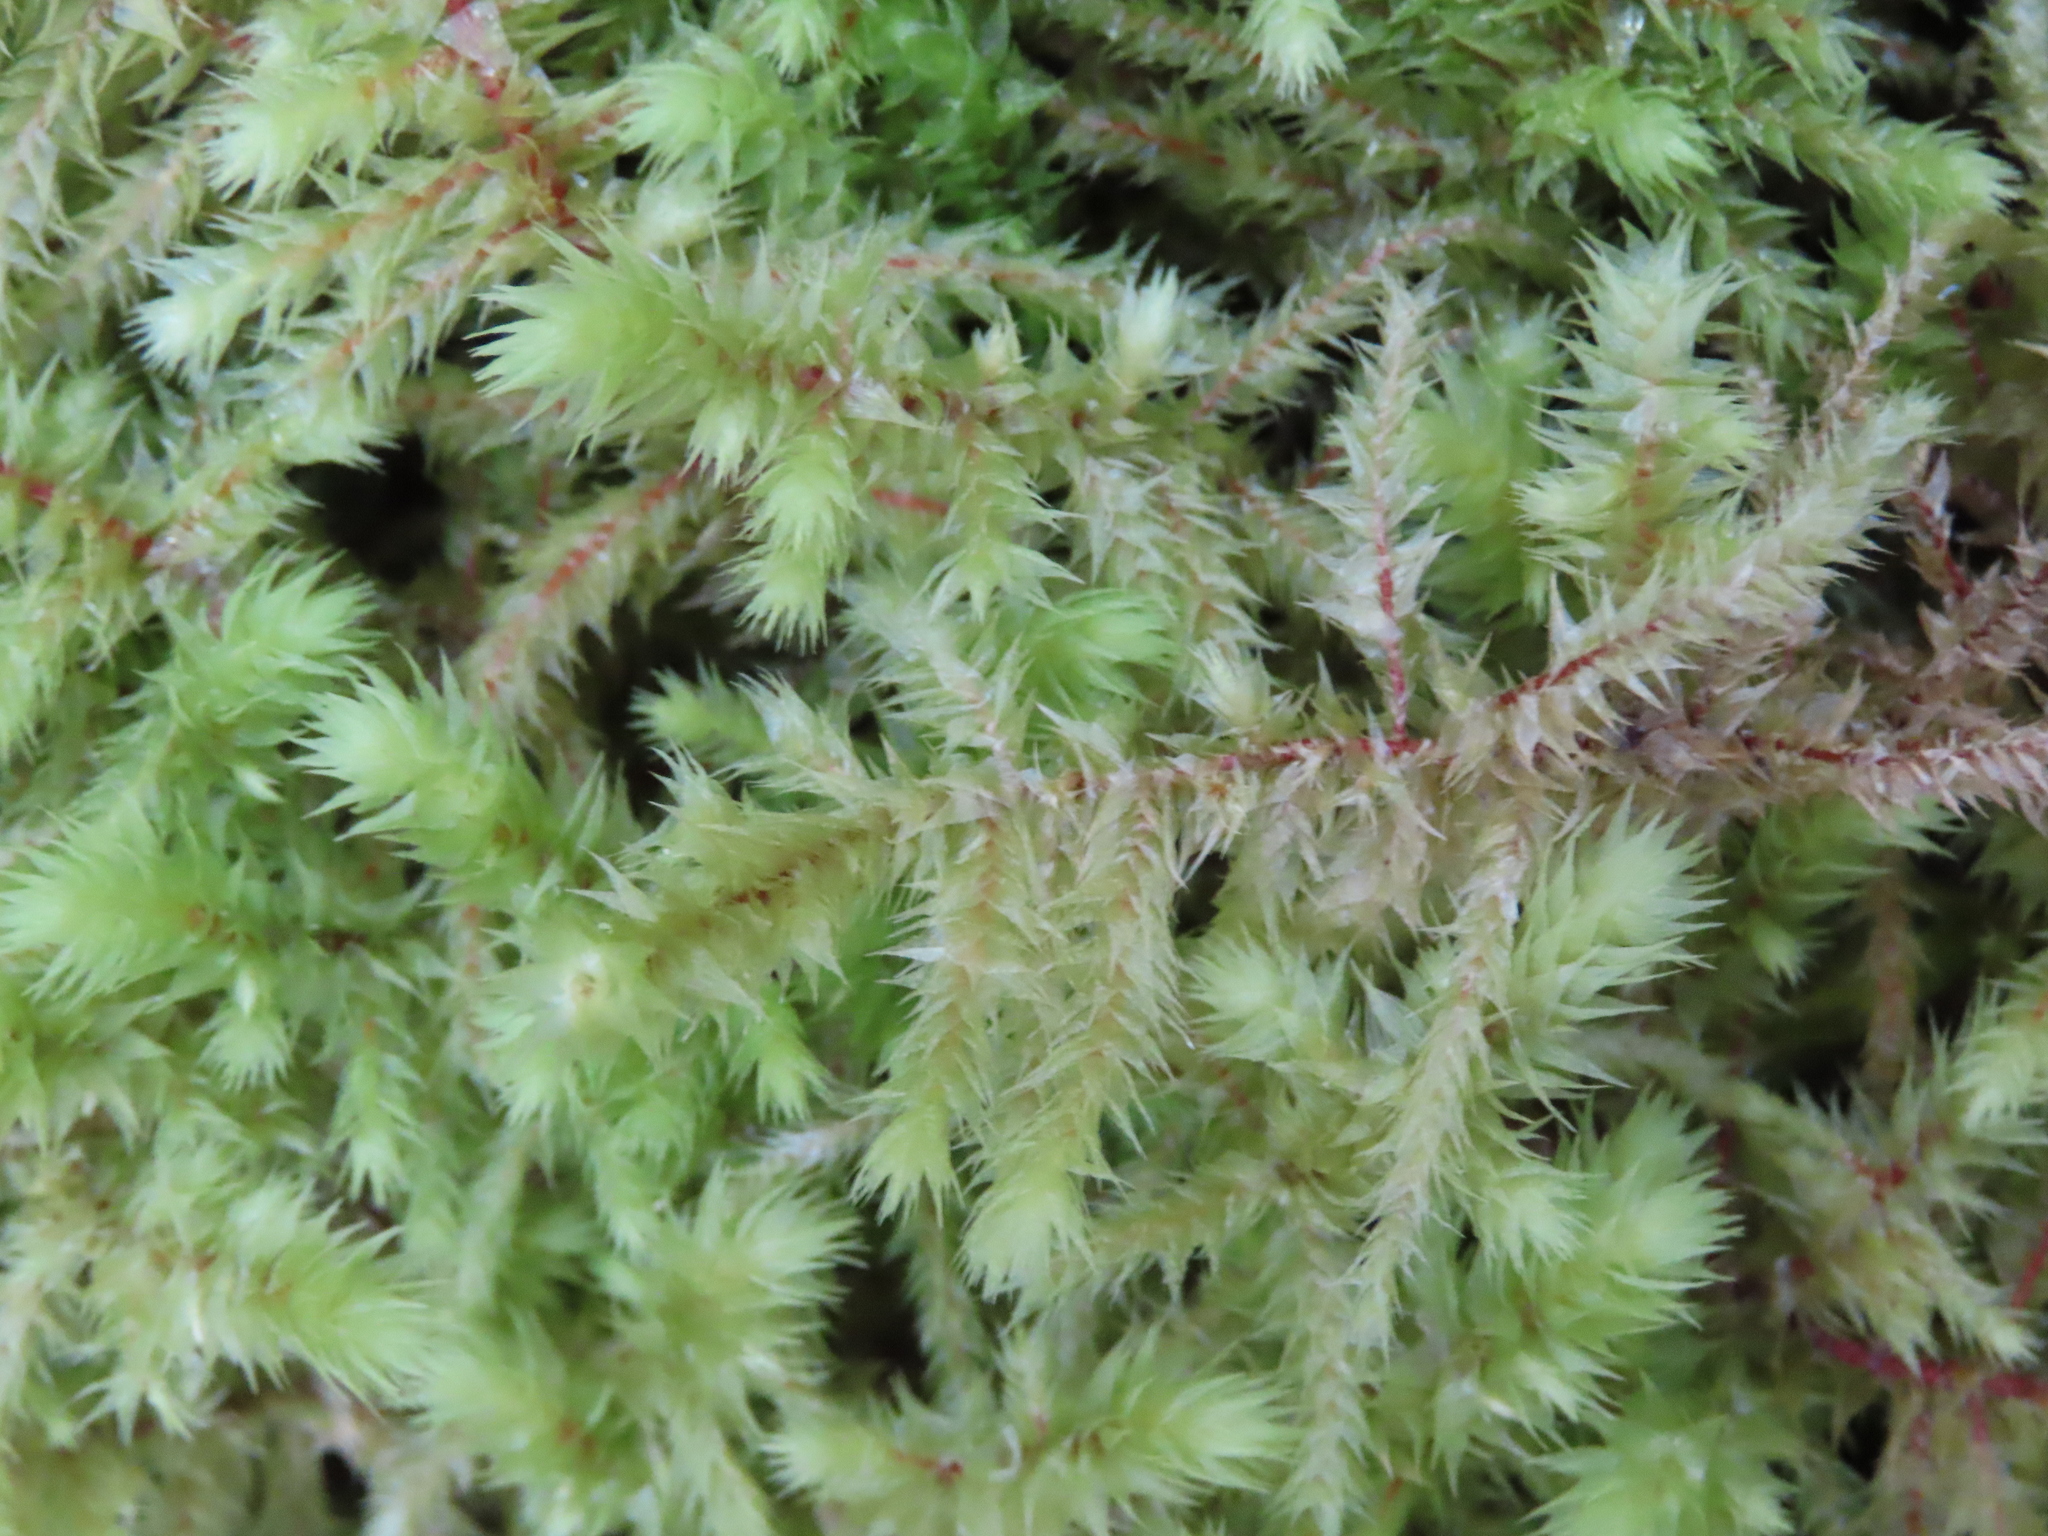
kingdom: Plantae
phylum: Bryophyta
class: Bryopsida
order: Hypnales
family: Hylocomiaceae
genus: Hylocomiadelphus
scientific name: Hylocomiadelphus triquetrus
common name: Rough goose neck moss
